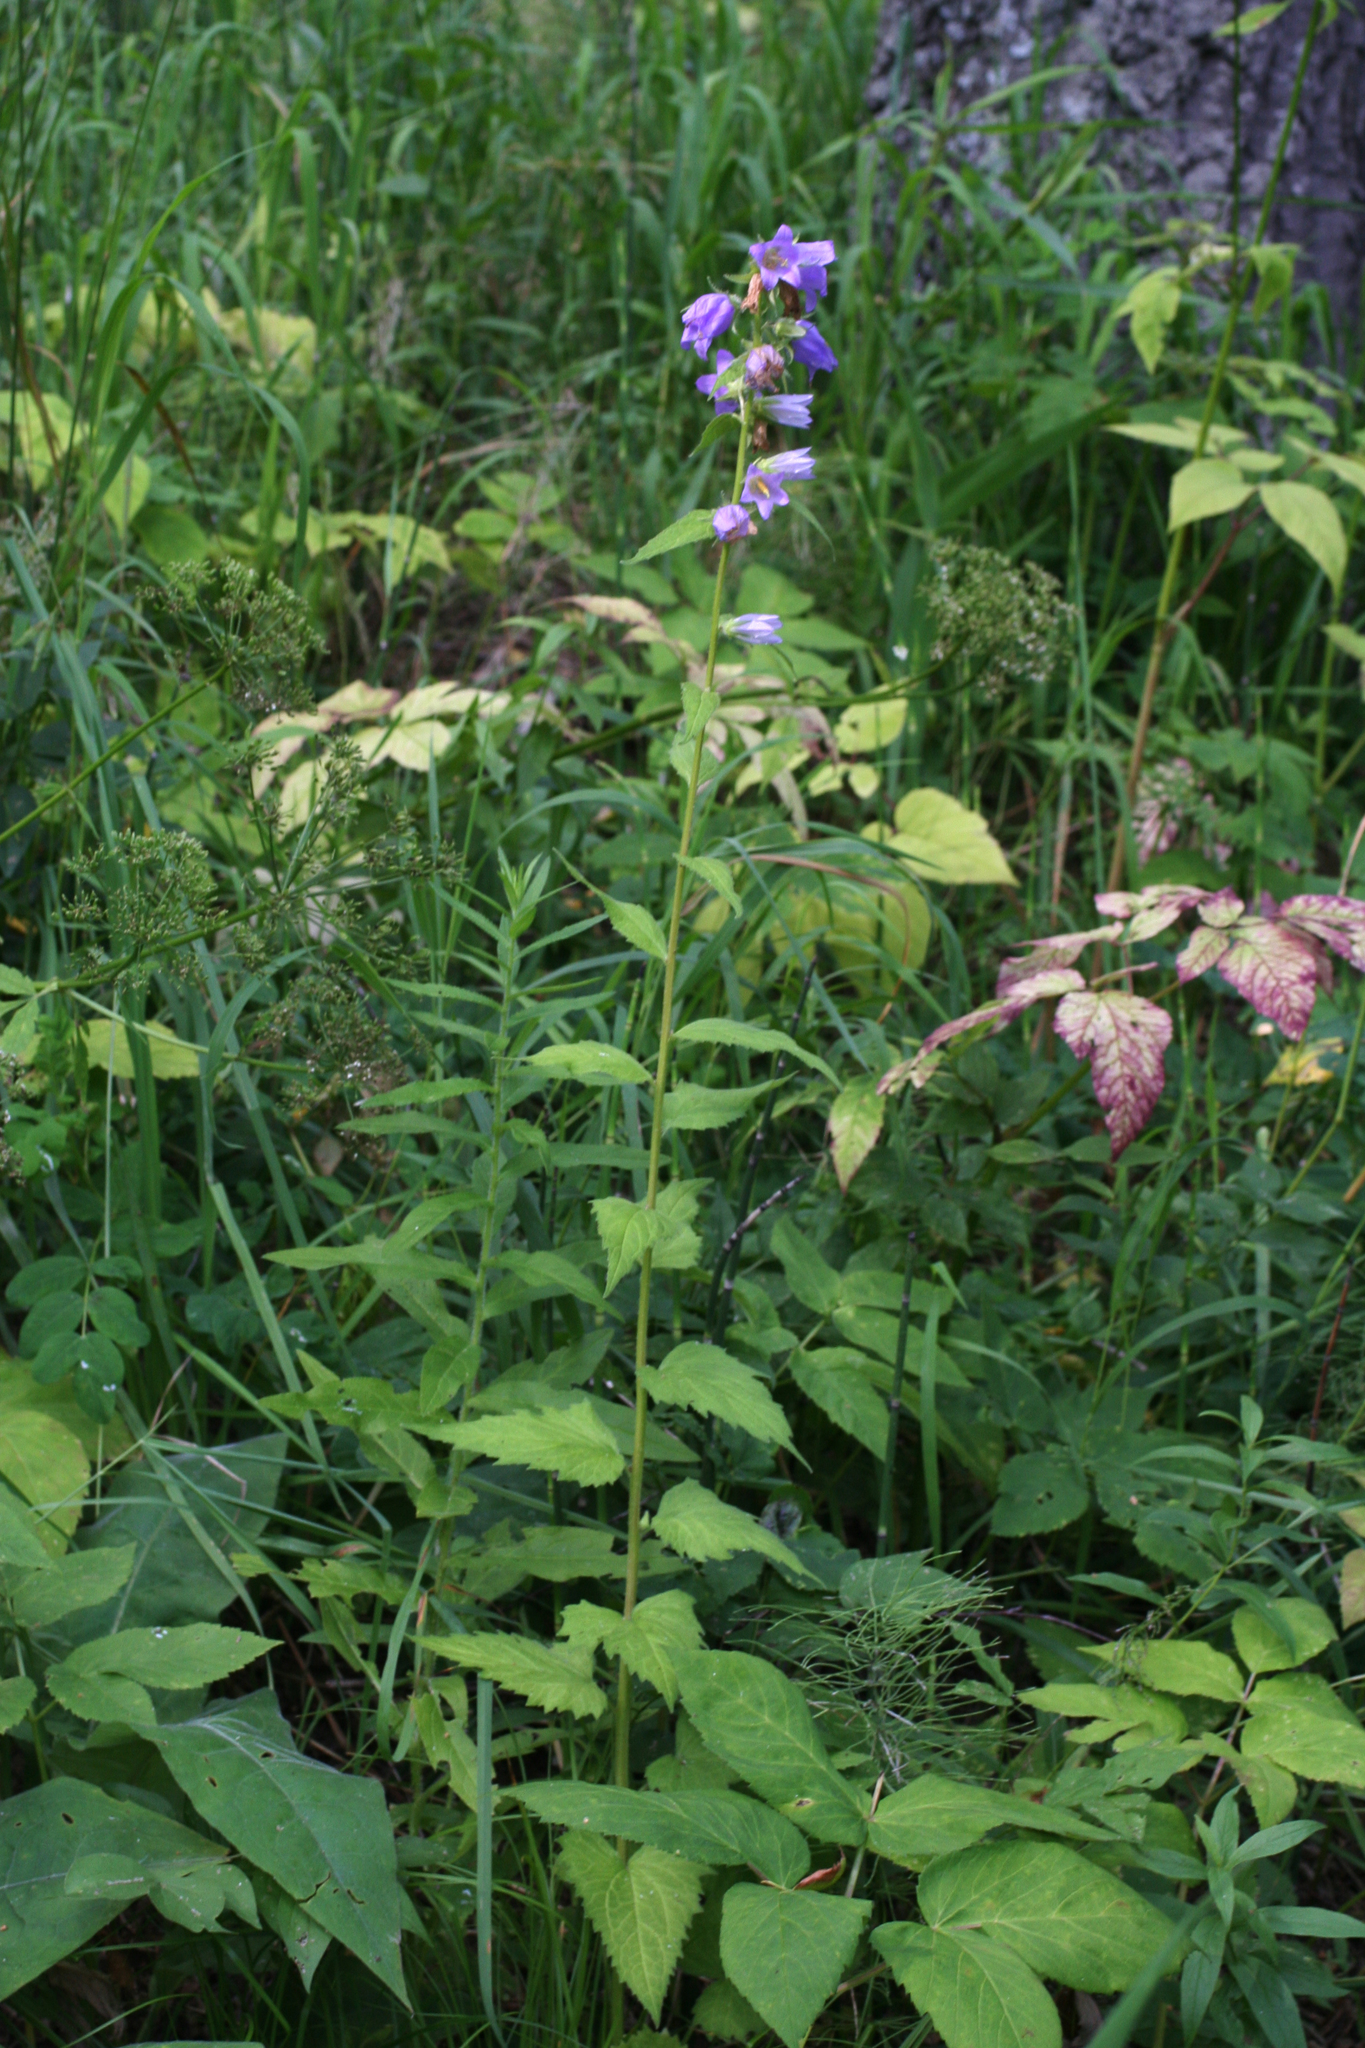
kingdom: Plantae
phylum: Tracheophyta
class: Magnoliopsida
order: Asterales
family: Campanulaceae
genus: Campanula
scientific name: Campanula trachelium
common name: Nettle-leaved bellflower
